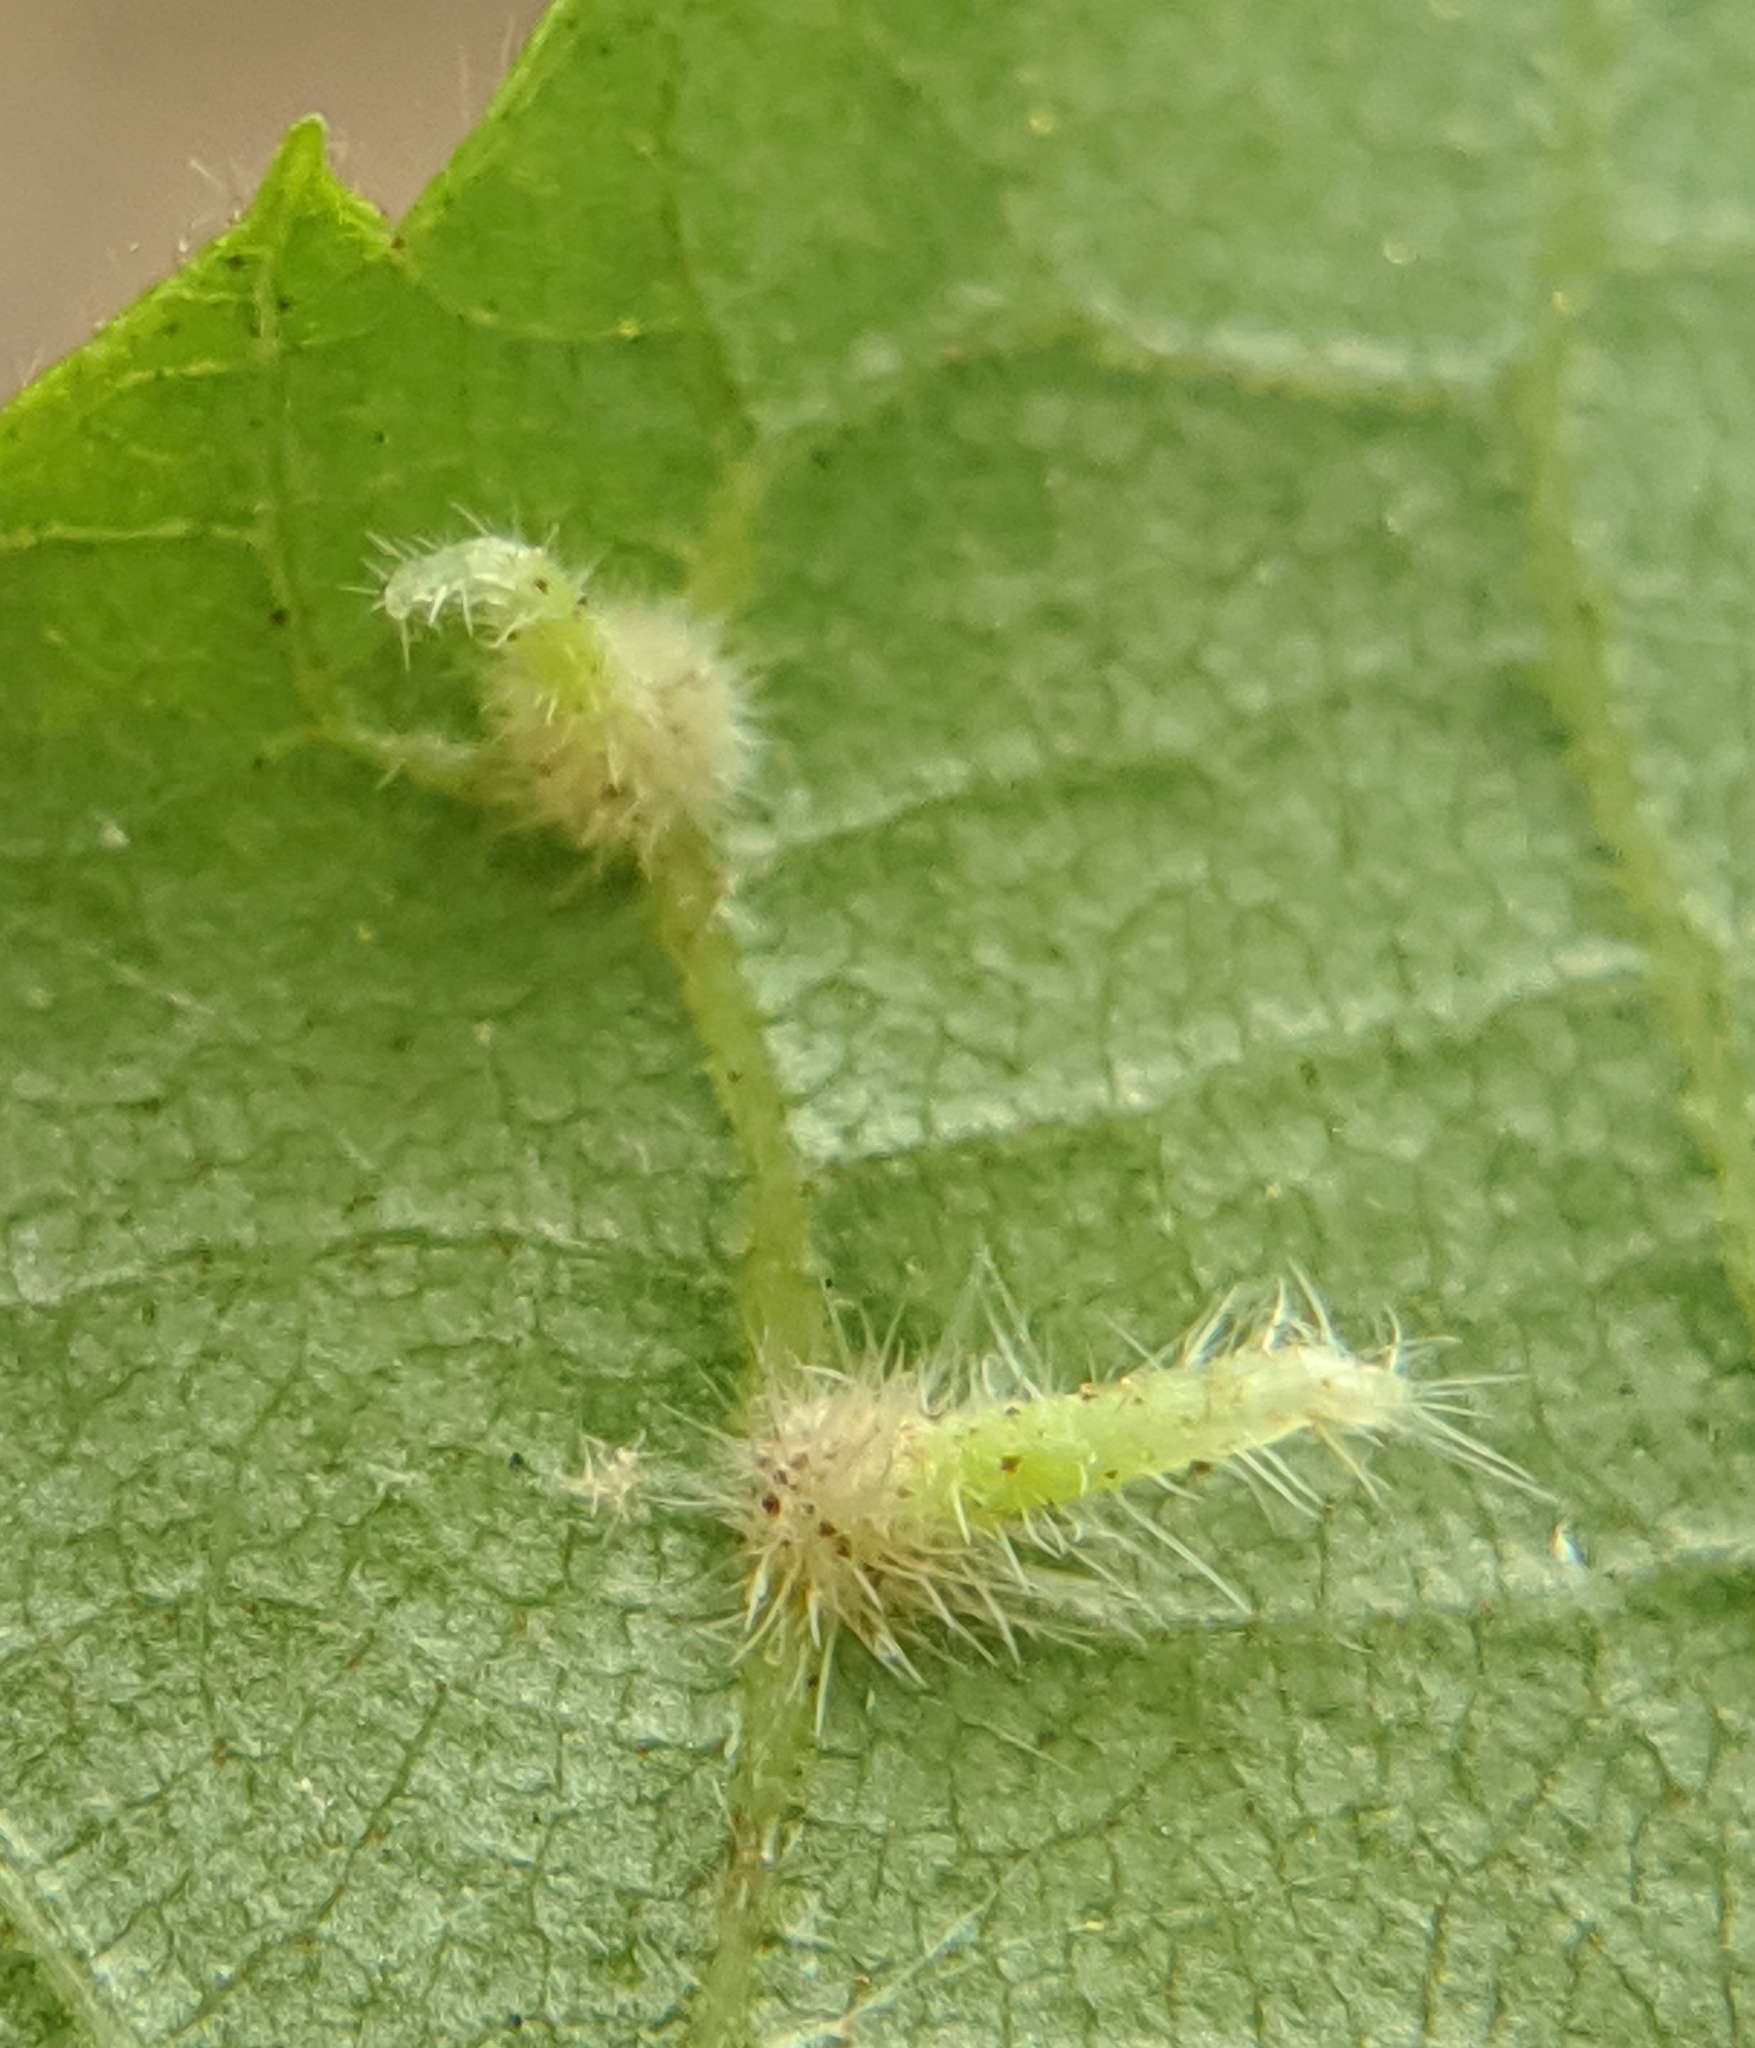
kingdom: Animalia
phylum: Arthropoda
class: Insecta
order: Diptera
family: Cecidomyiidae
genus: Caryomyia
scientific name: Caryomyia inclinata
